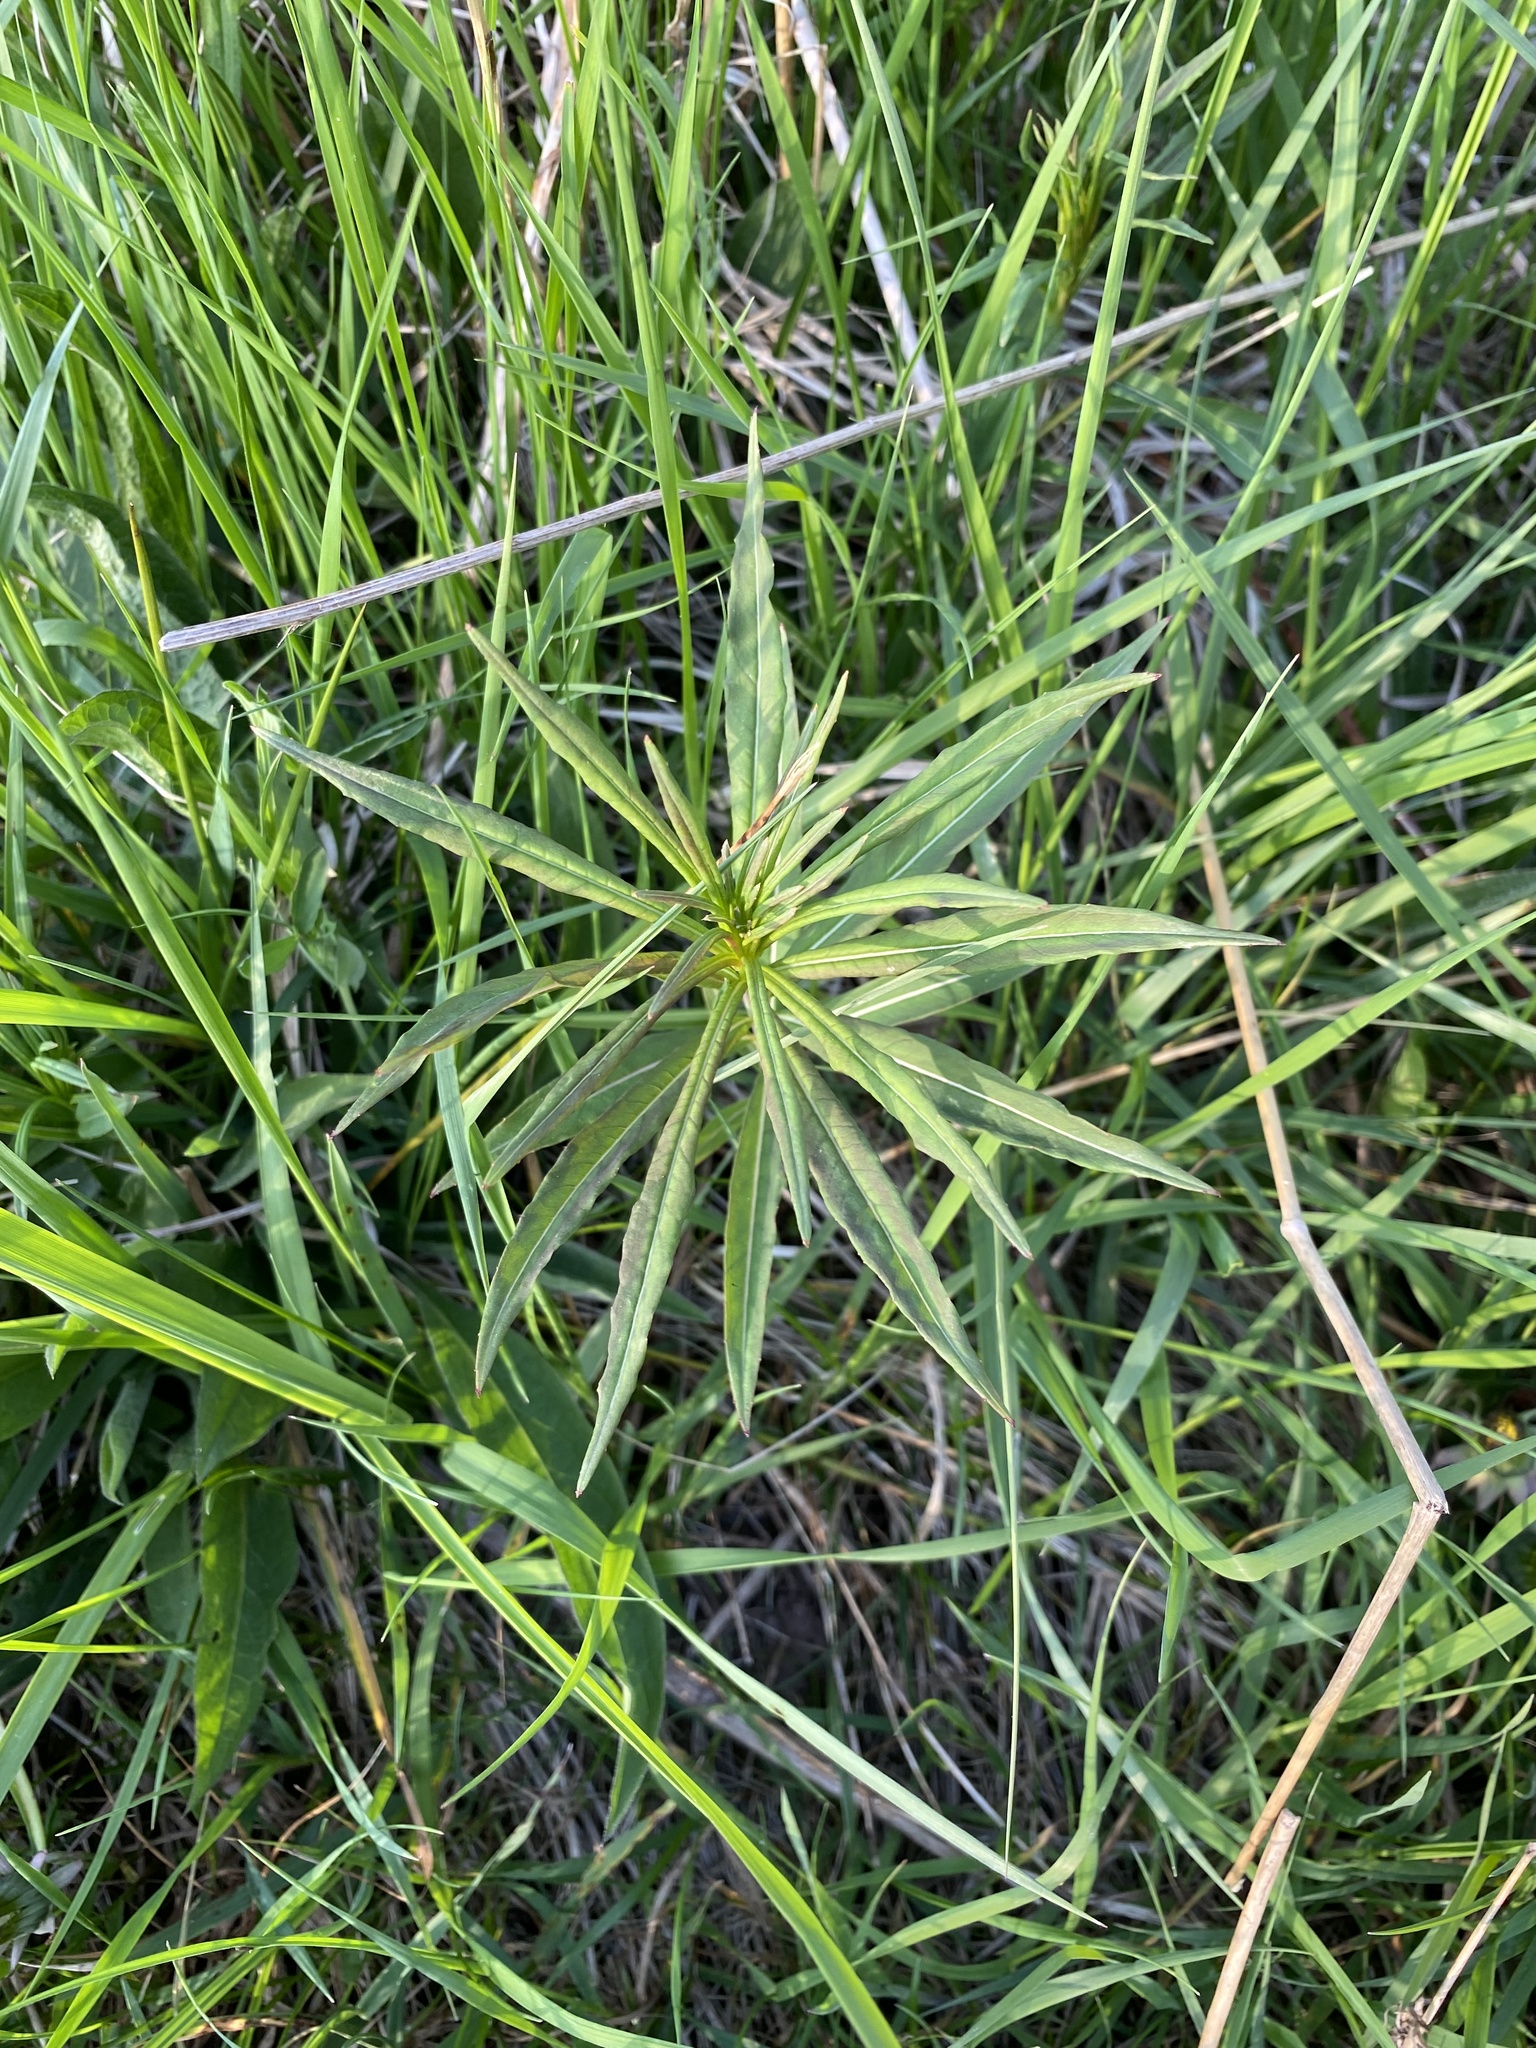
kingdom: Plantae
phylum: Tracheophyta
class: Magnoliopsida
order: Myrtales
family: Onagraceae
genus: Chamaenerion
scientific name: Chamaenerion angustifolium
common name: Fireweed
